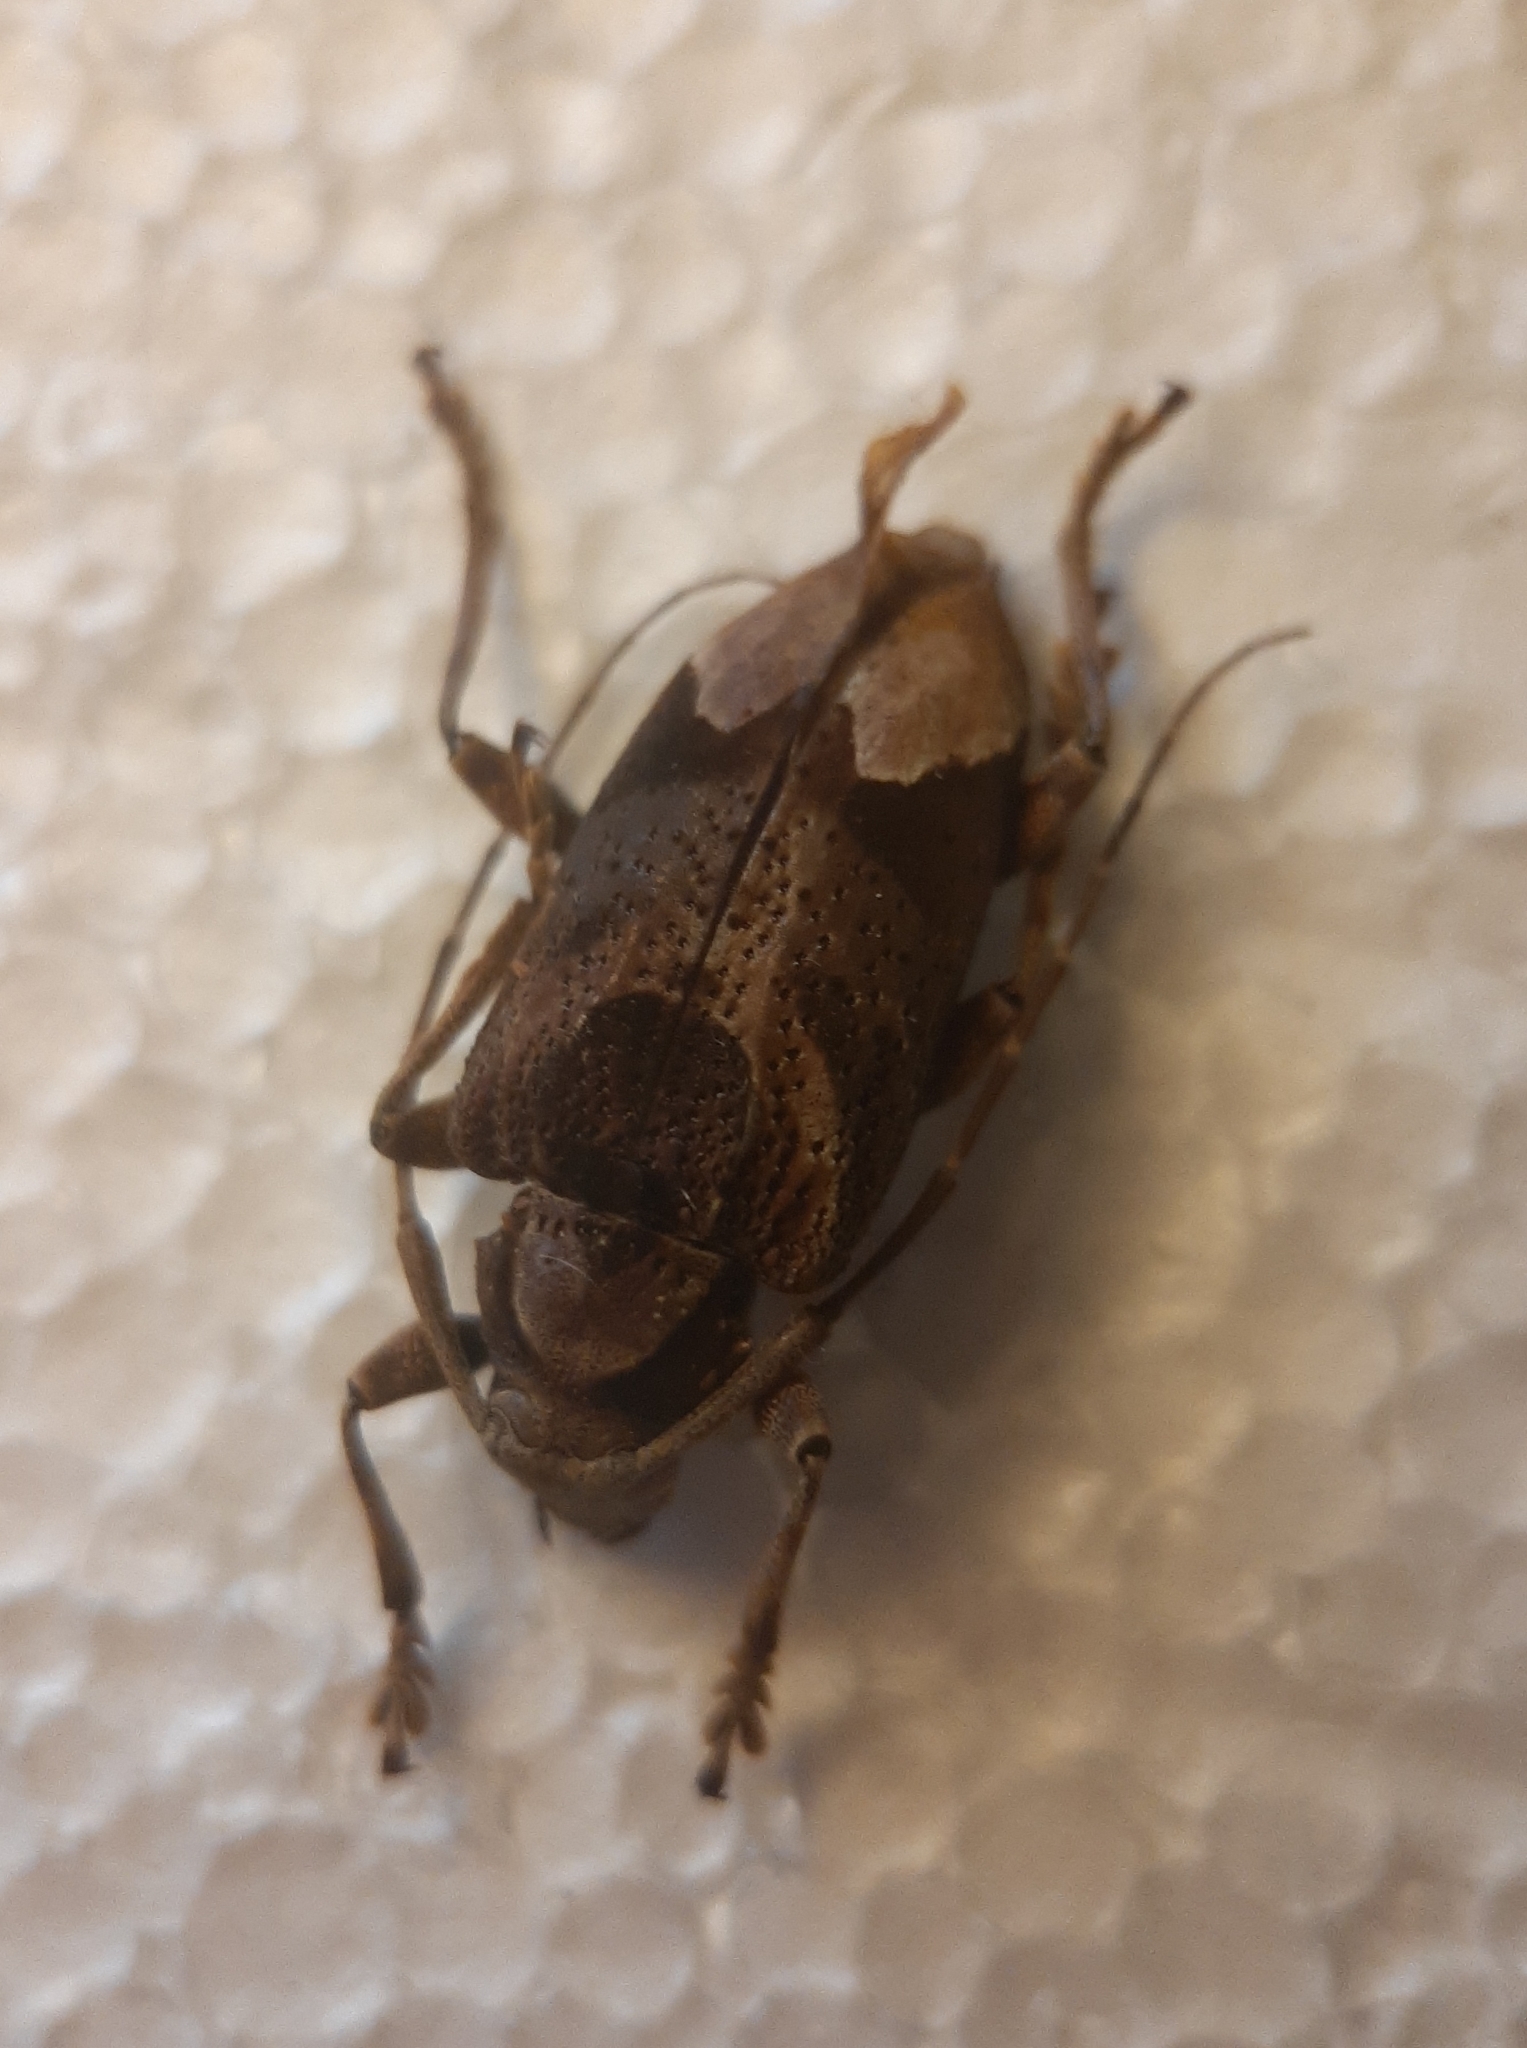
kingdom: Animalia
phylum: Arthropoda
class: Insecta
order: Coleoptera
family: Cerambycidae
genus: Trypanidius
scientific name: Trypanidius andicola
